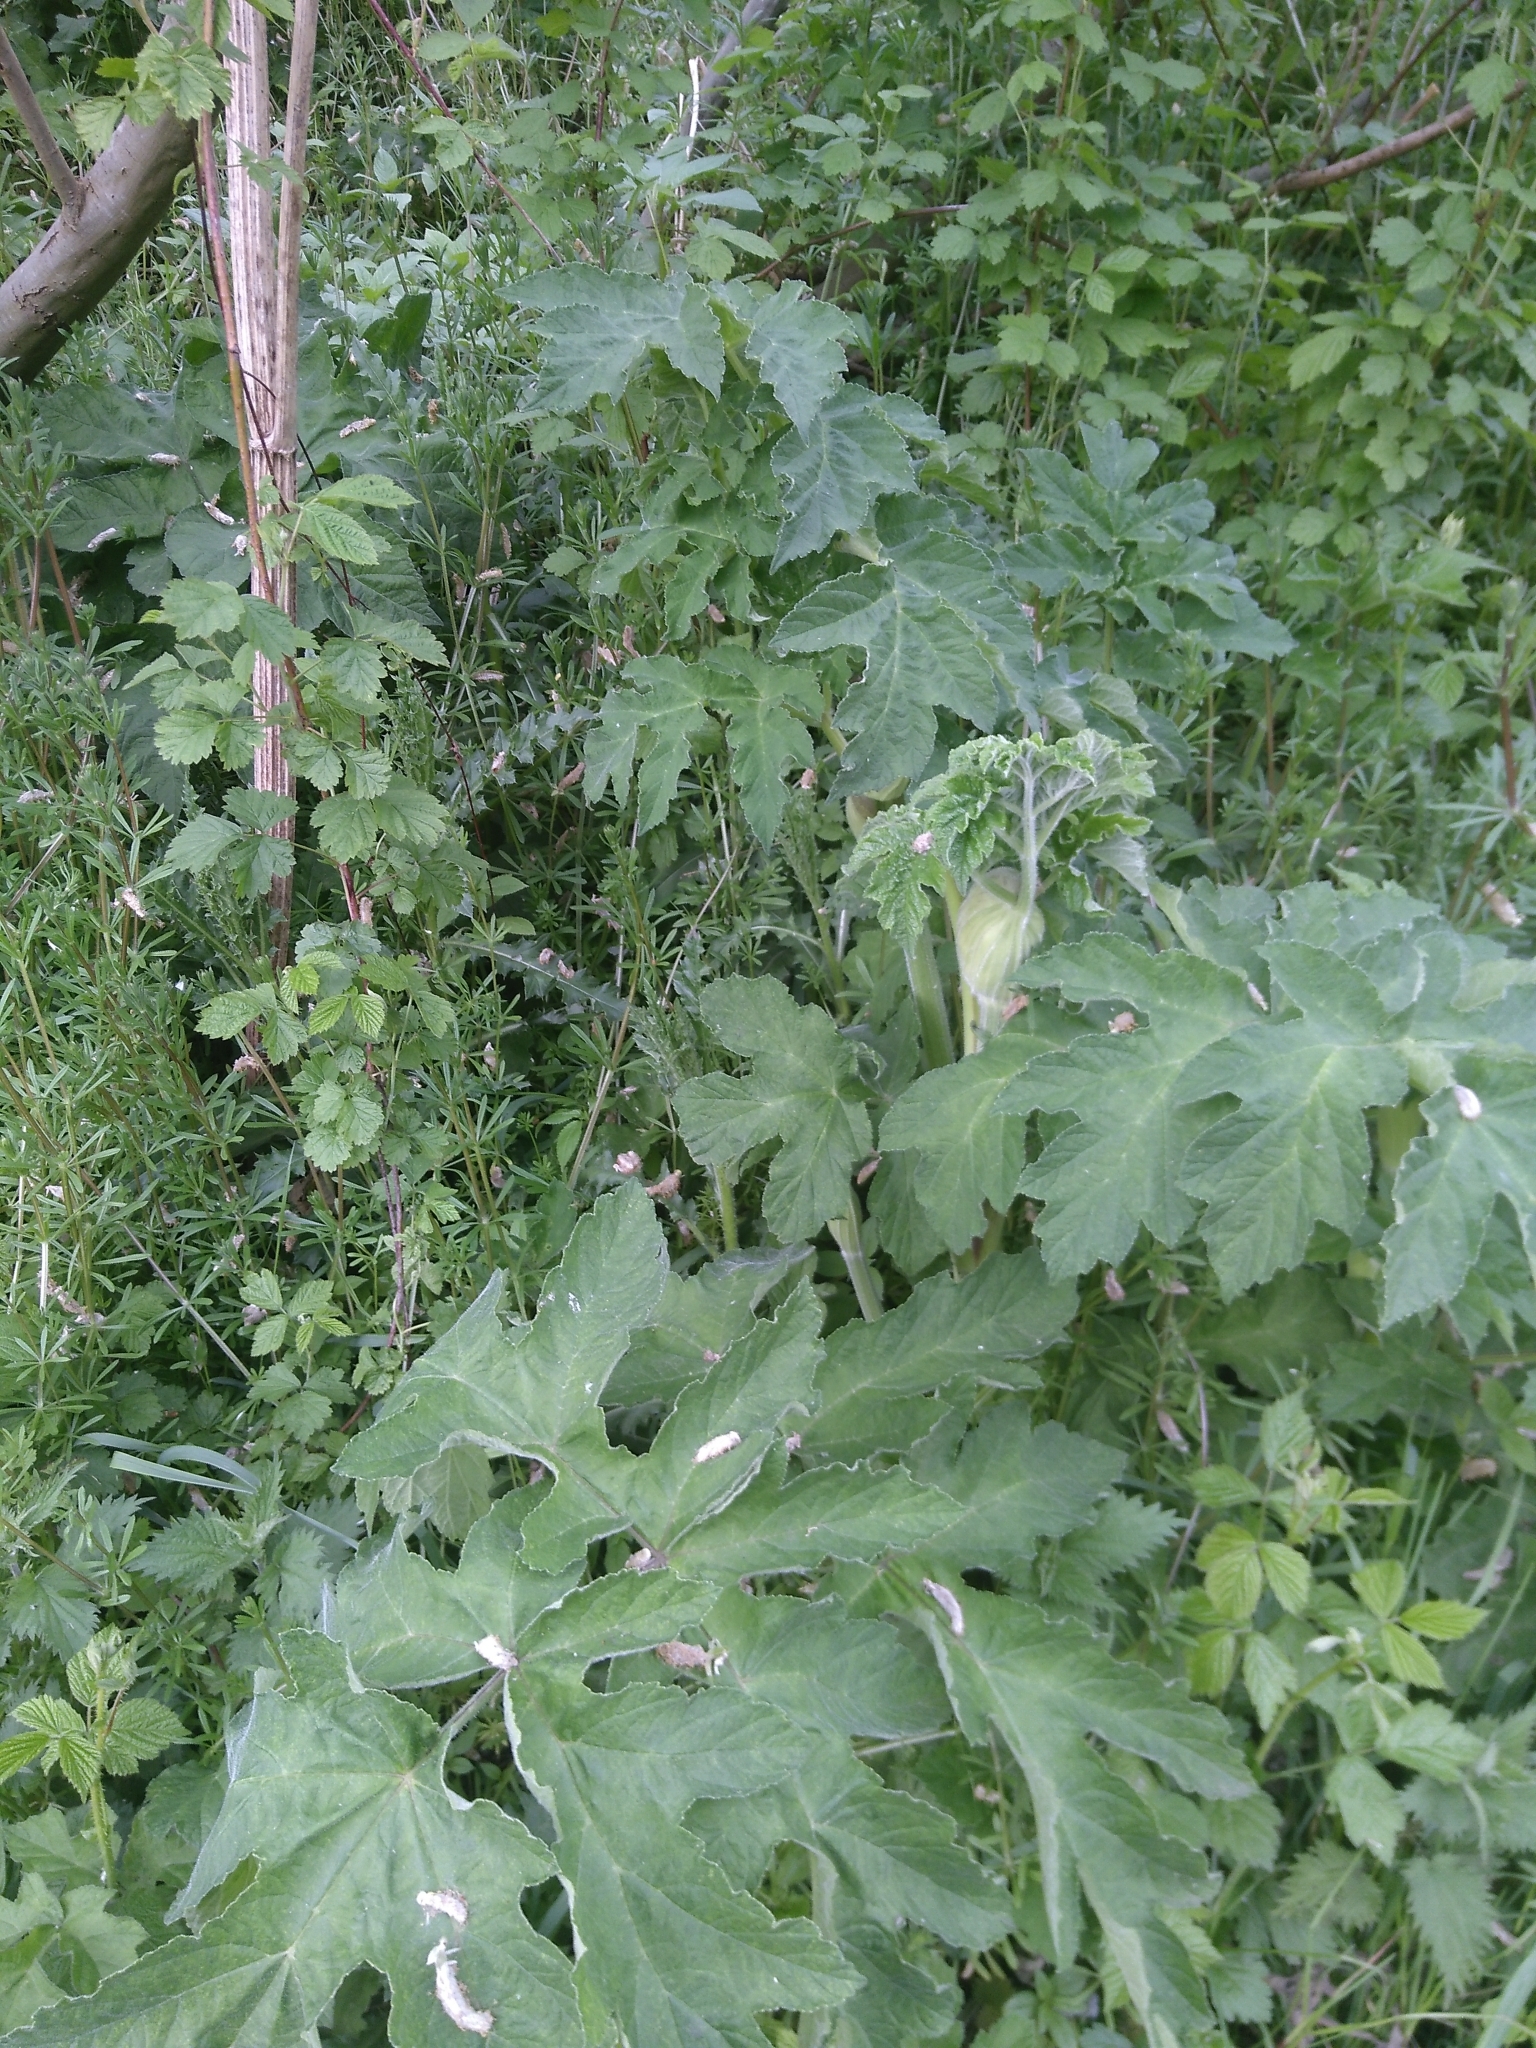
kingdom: Plantae
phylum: Tracheophyta
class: Magnoliopsida
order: Apiales
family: Apiaceae
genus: Heracleum
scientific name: Heracleum sphondylium
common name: Hogweed
